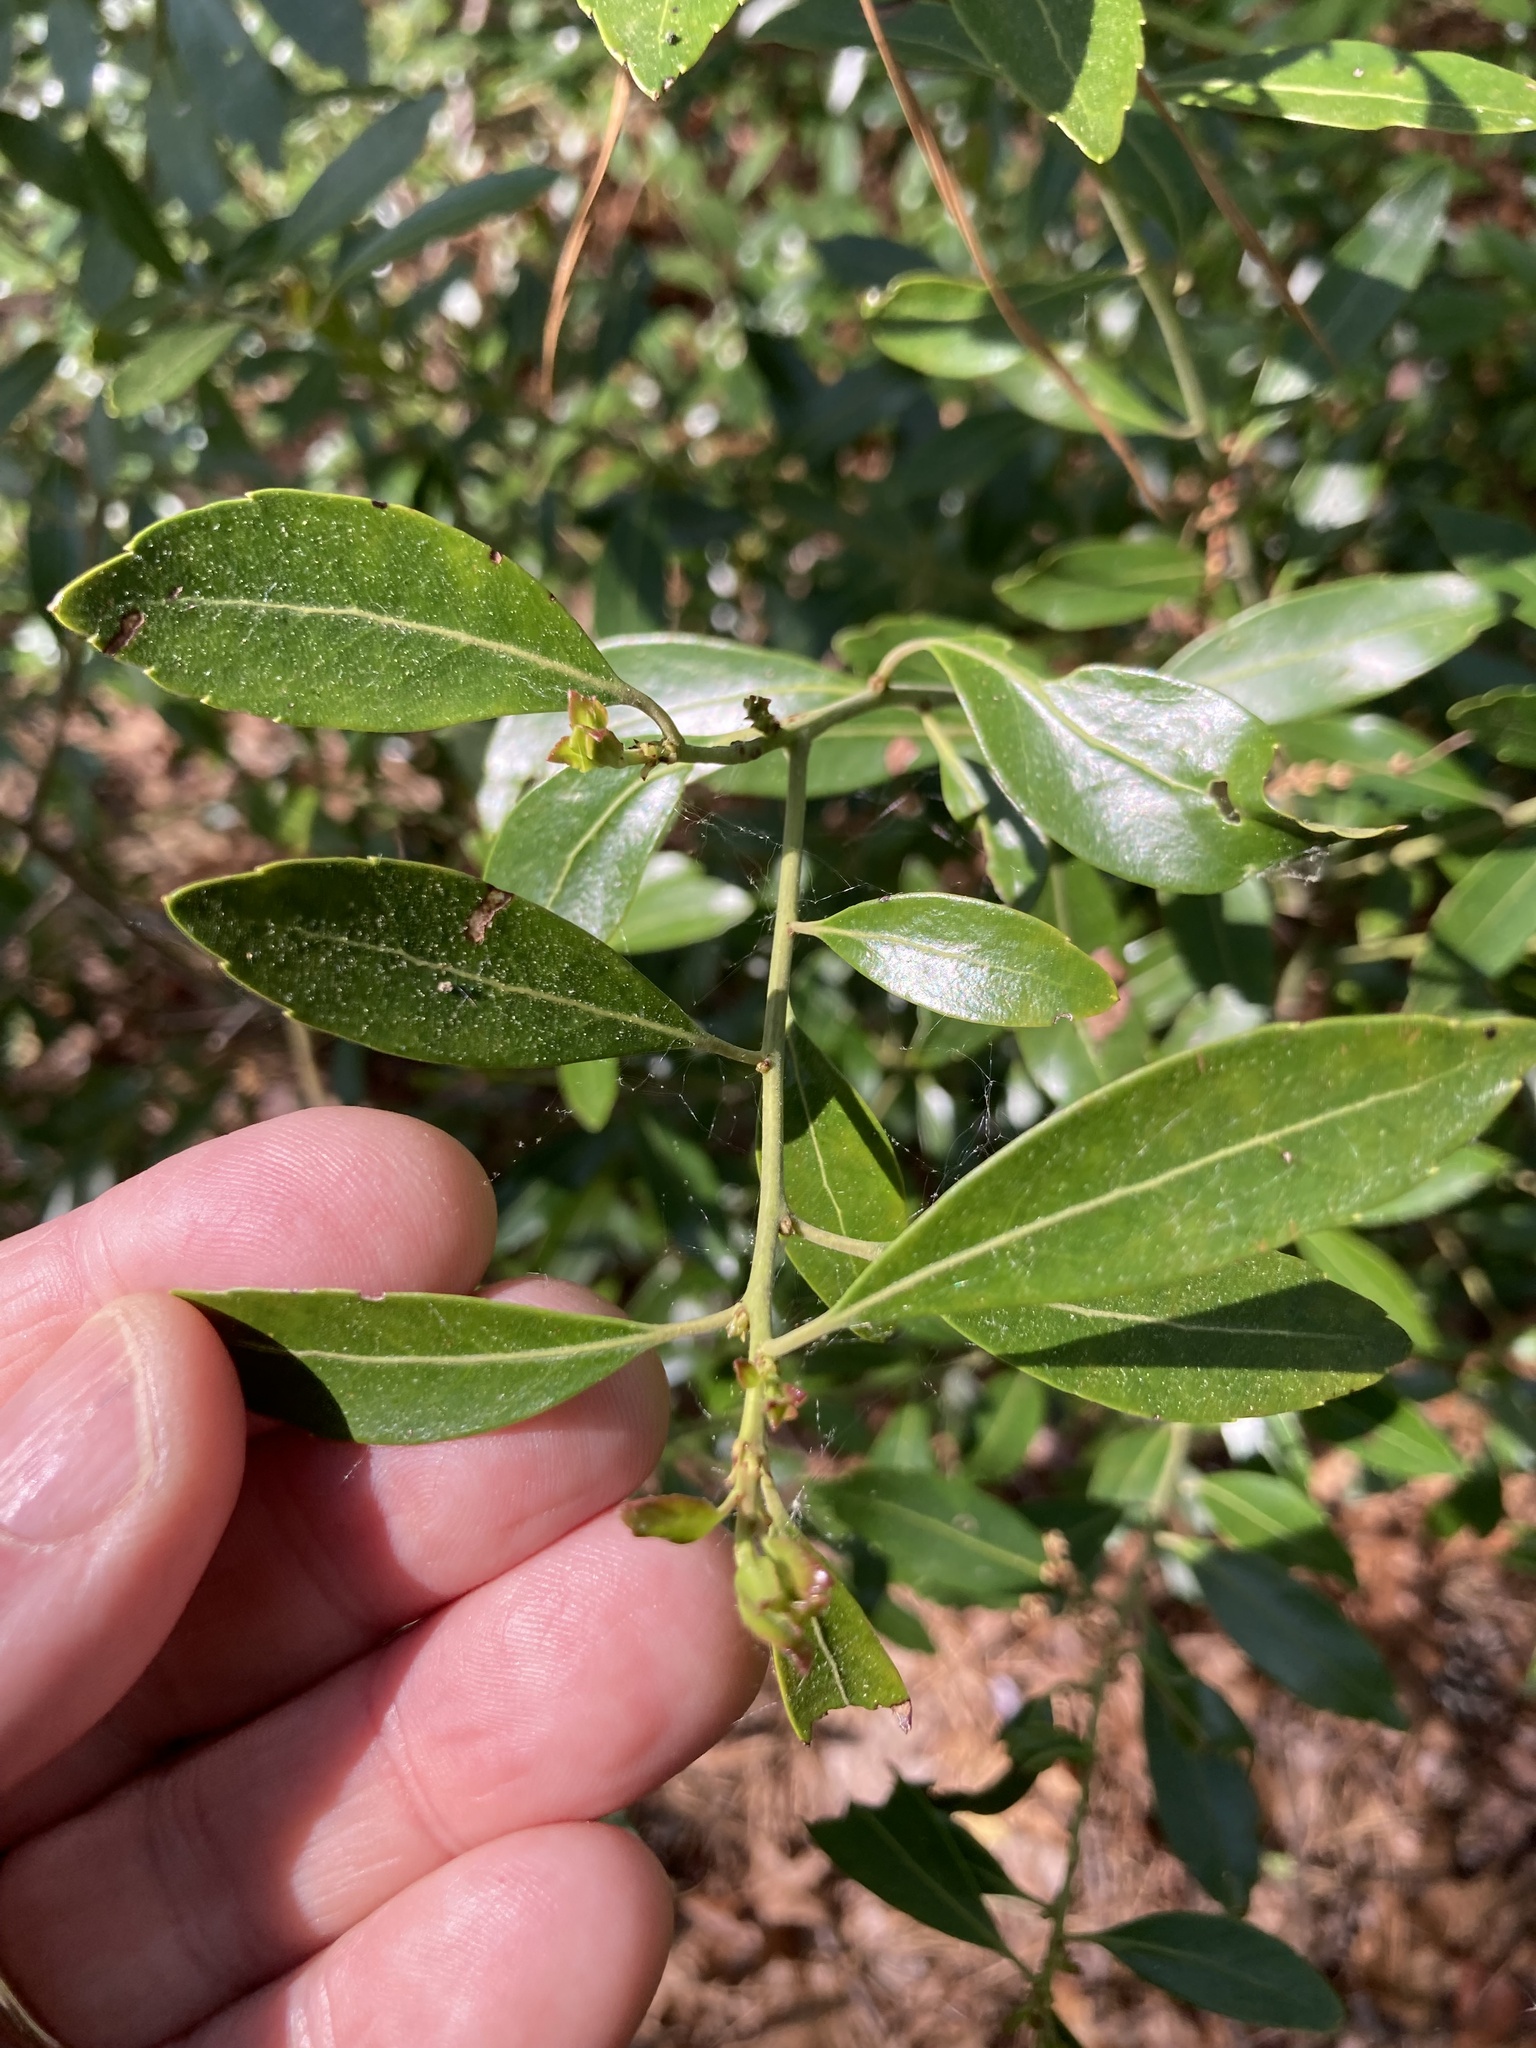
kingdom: Plantae
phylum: Tracheophyta
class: Magnoliopsida
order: Aquifoliales
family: Aquifoliaceae
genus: Ilex
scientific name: Ilex glabra
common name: Bitter gallberry
